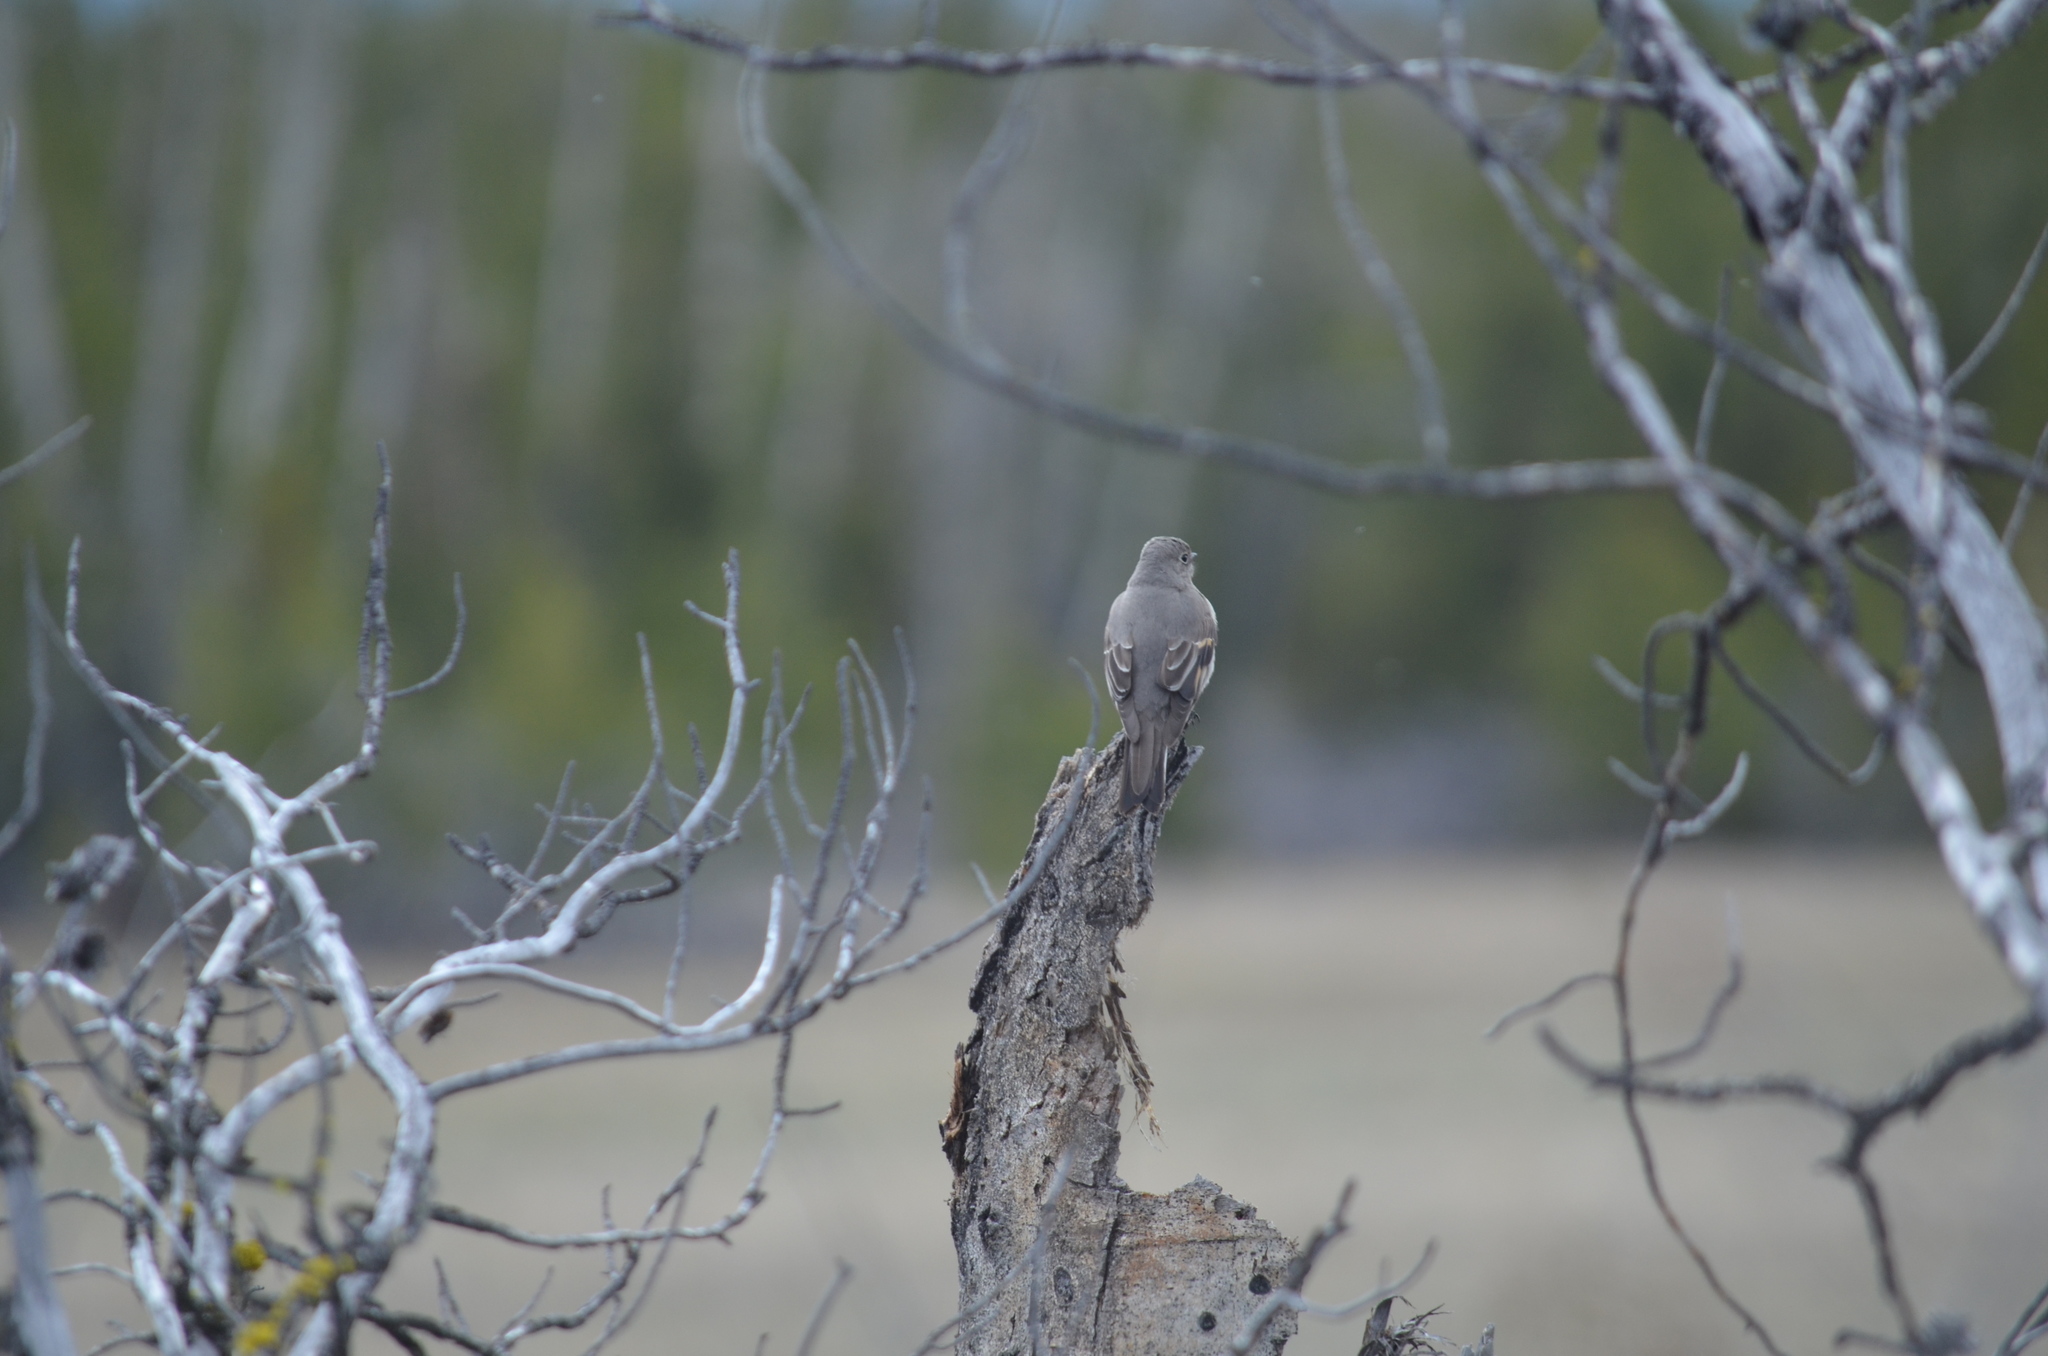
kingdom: Animalia
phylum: Chordata
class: Aves
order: Passeriformes
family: Turdidae
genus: Myadestes
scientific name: Myadestes townsendi
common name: Townsend's solitaire
